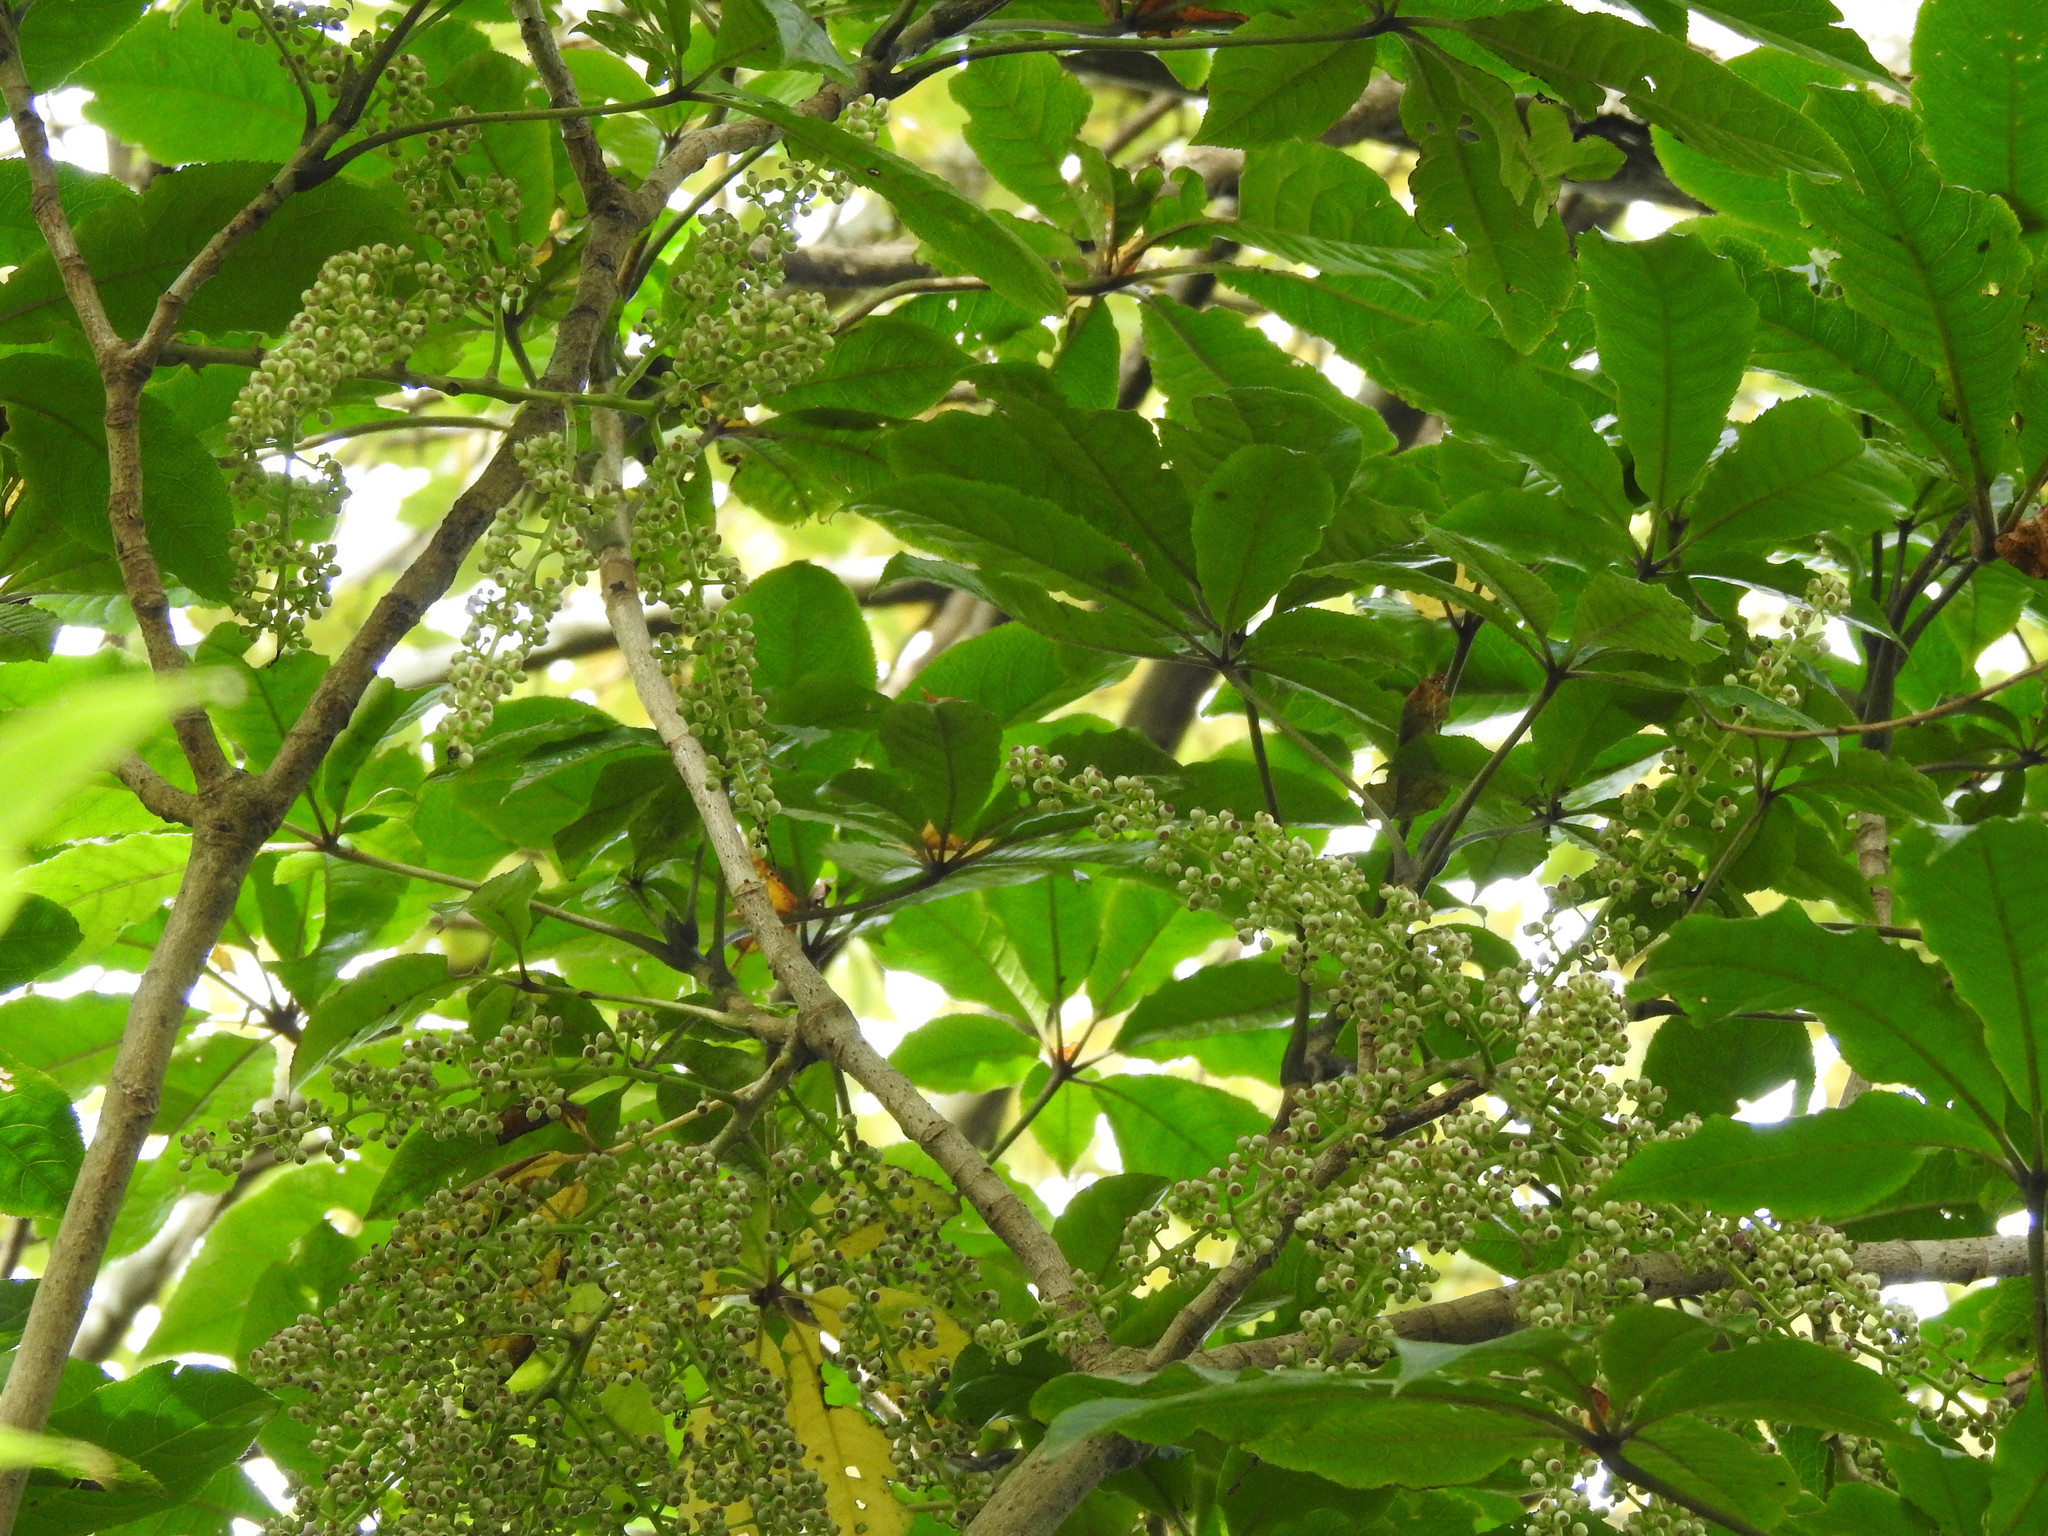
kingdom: Plantae
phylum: Tracheophyta
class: Magnoliopsida
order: Apiales
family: Araliaceae
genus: Schefflera
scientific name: Schefflera digitata
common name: Pate
